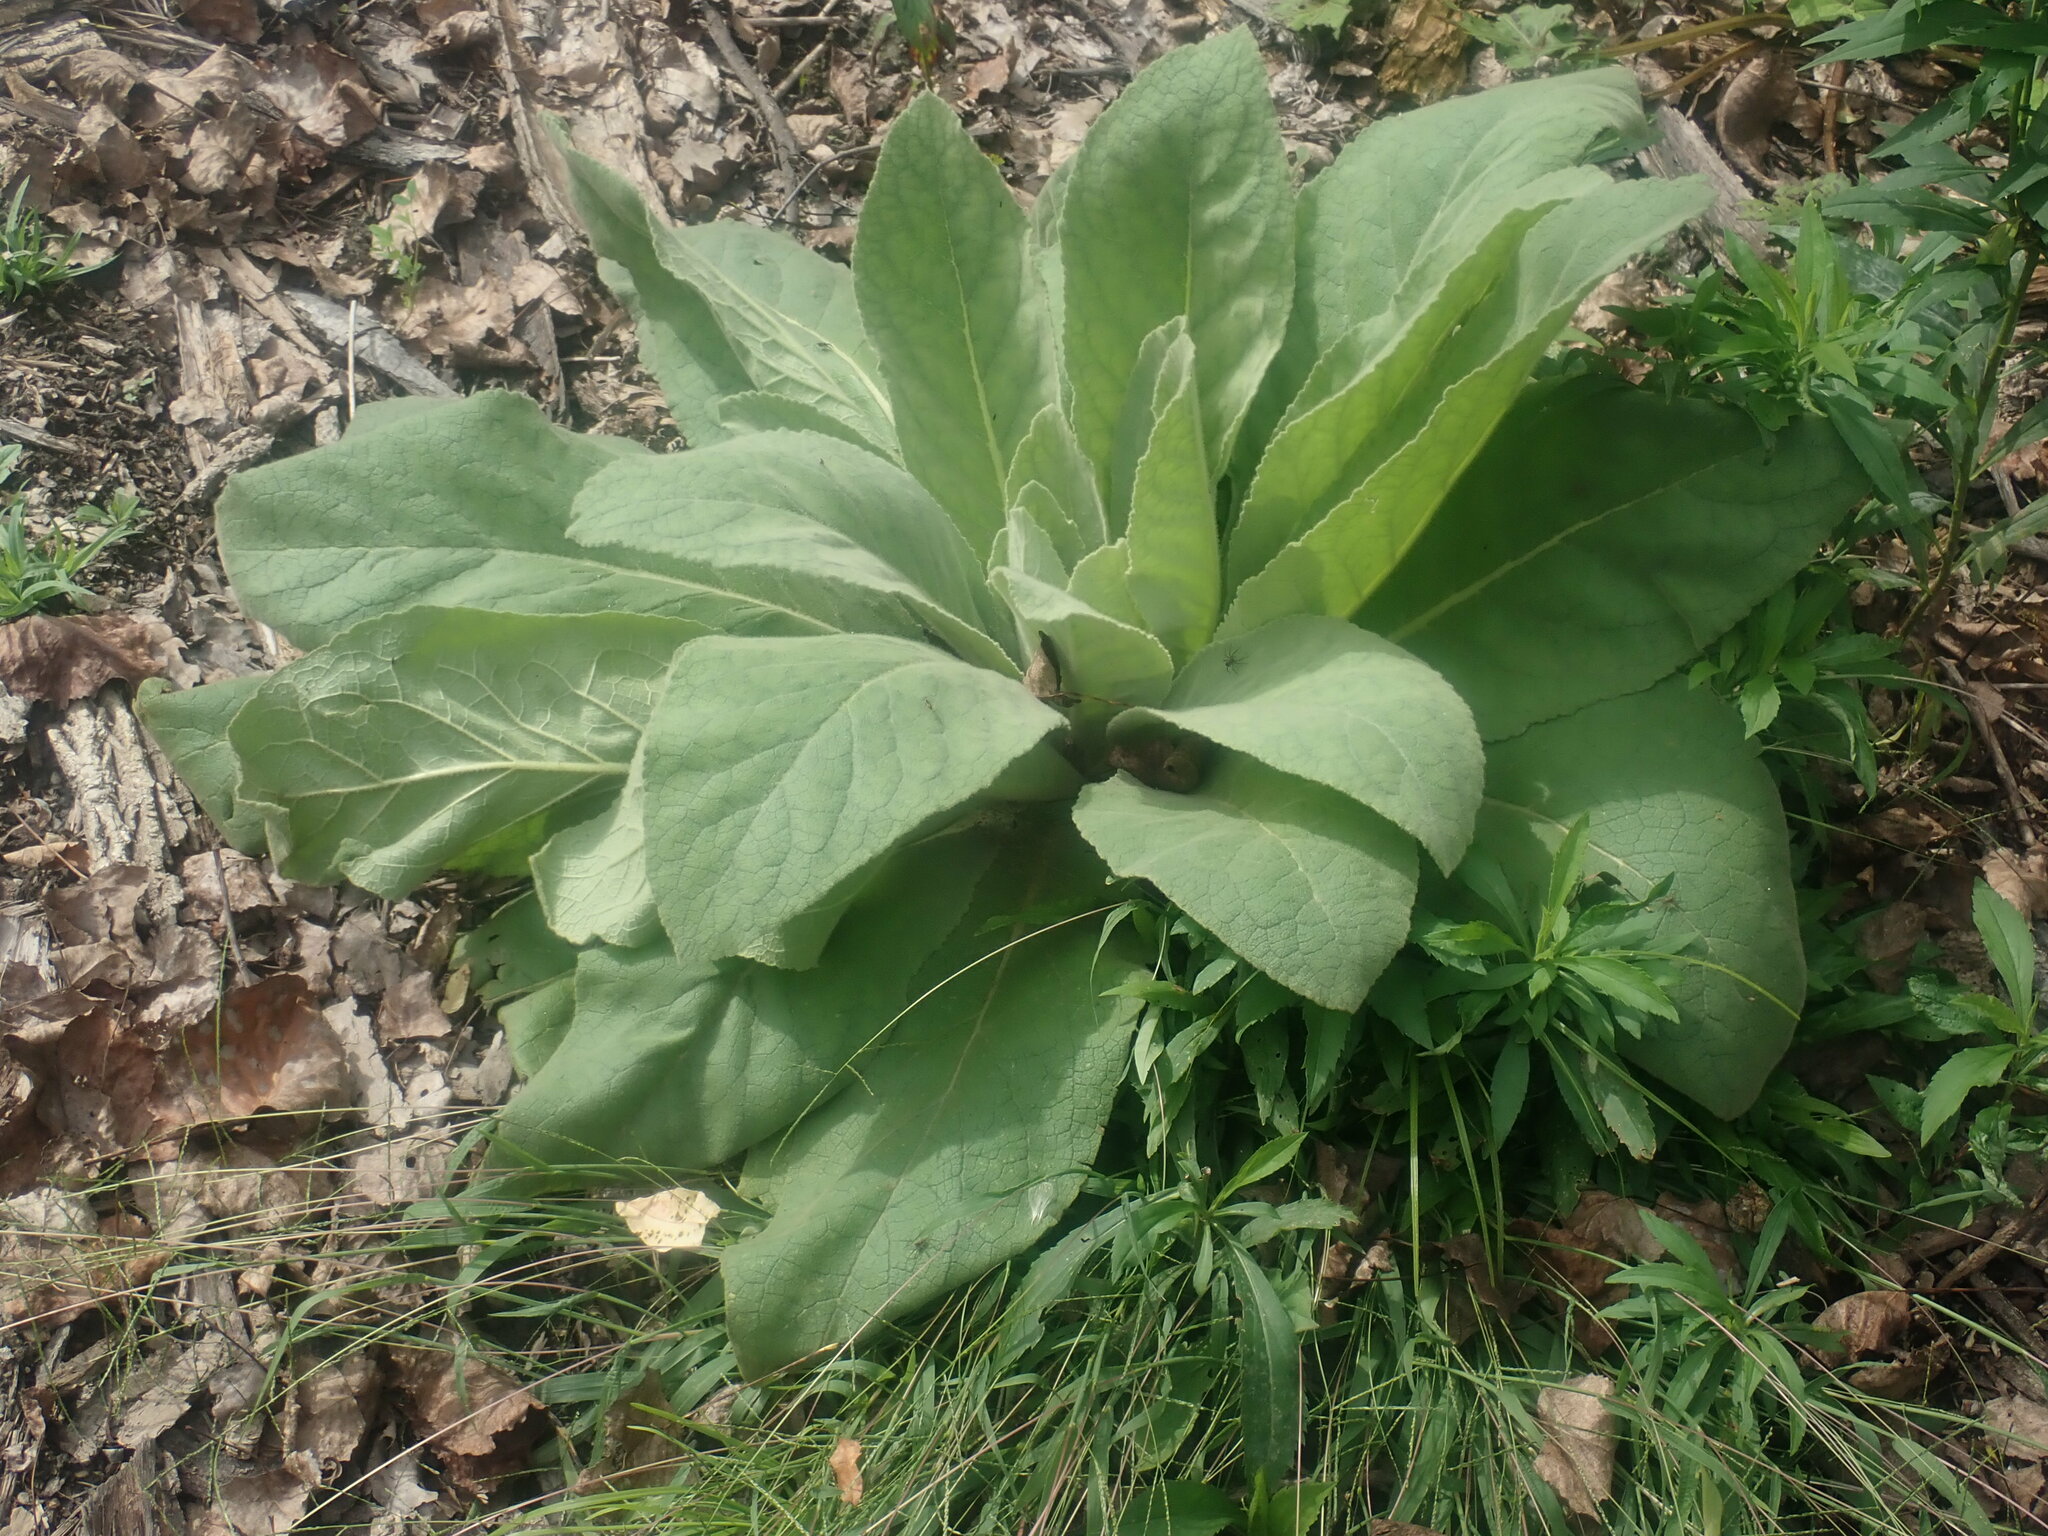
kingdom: Plantae
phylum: Tracheophyta
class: Magnoliopsida
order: Lamiales
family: Scrophulariaceae
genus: Verbascum
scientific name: Verbascum thapsus
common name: Common mullein
